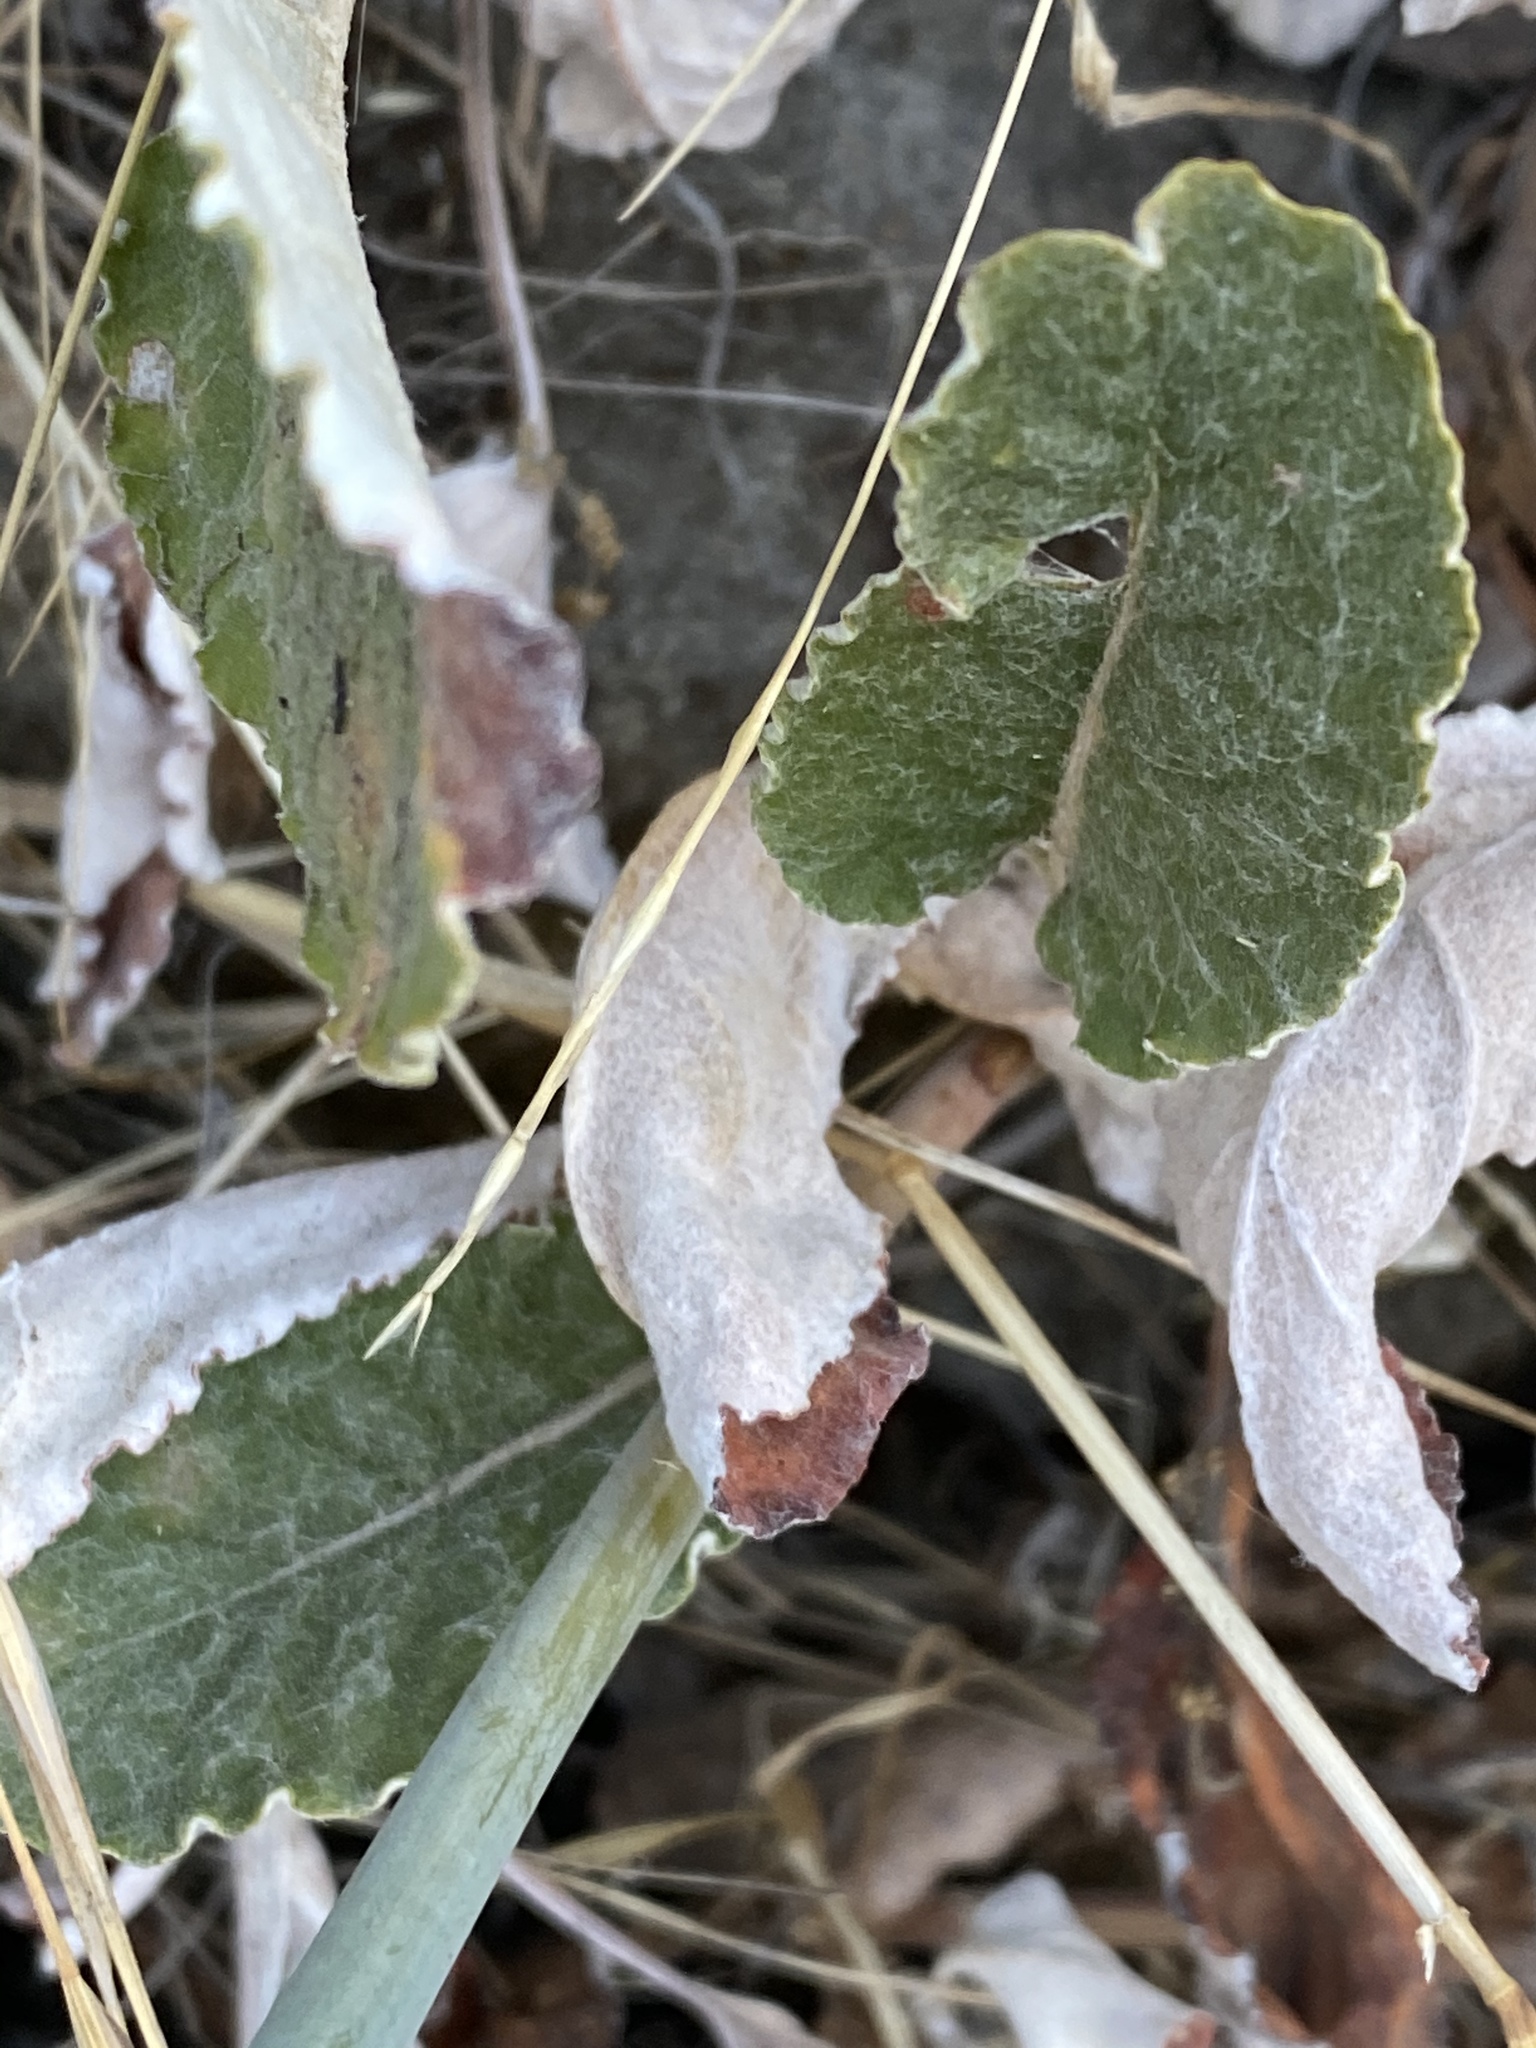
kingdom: Plantae
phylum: Tracheophyta
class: Magnoliopsida
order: Caryophyllales
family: Polygonaceae
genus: Eriogonum
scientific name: Eriogonum nudum
